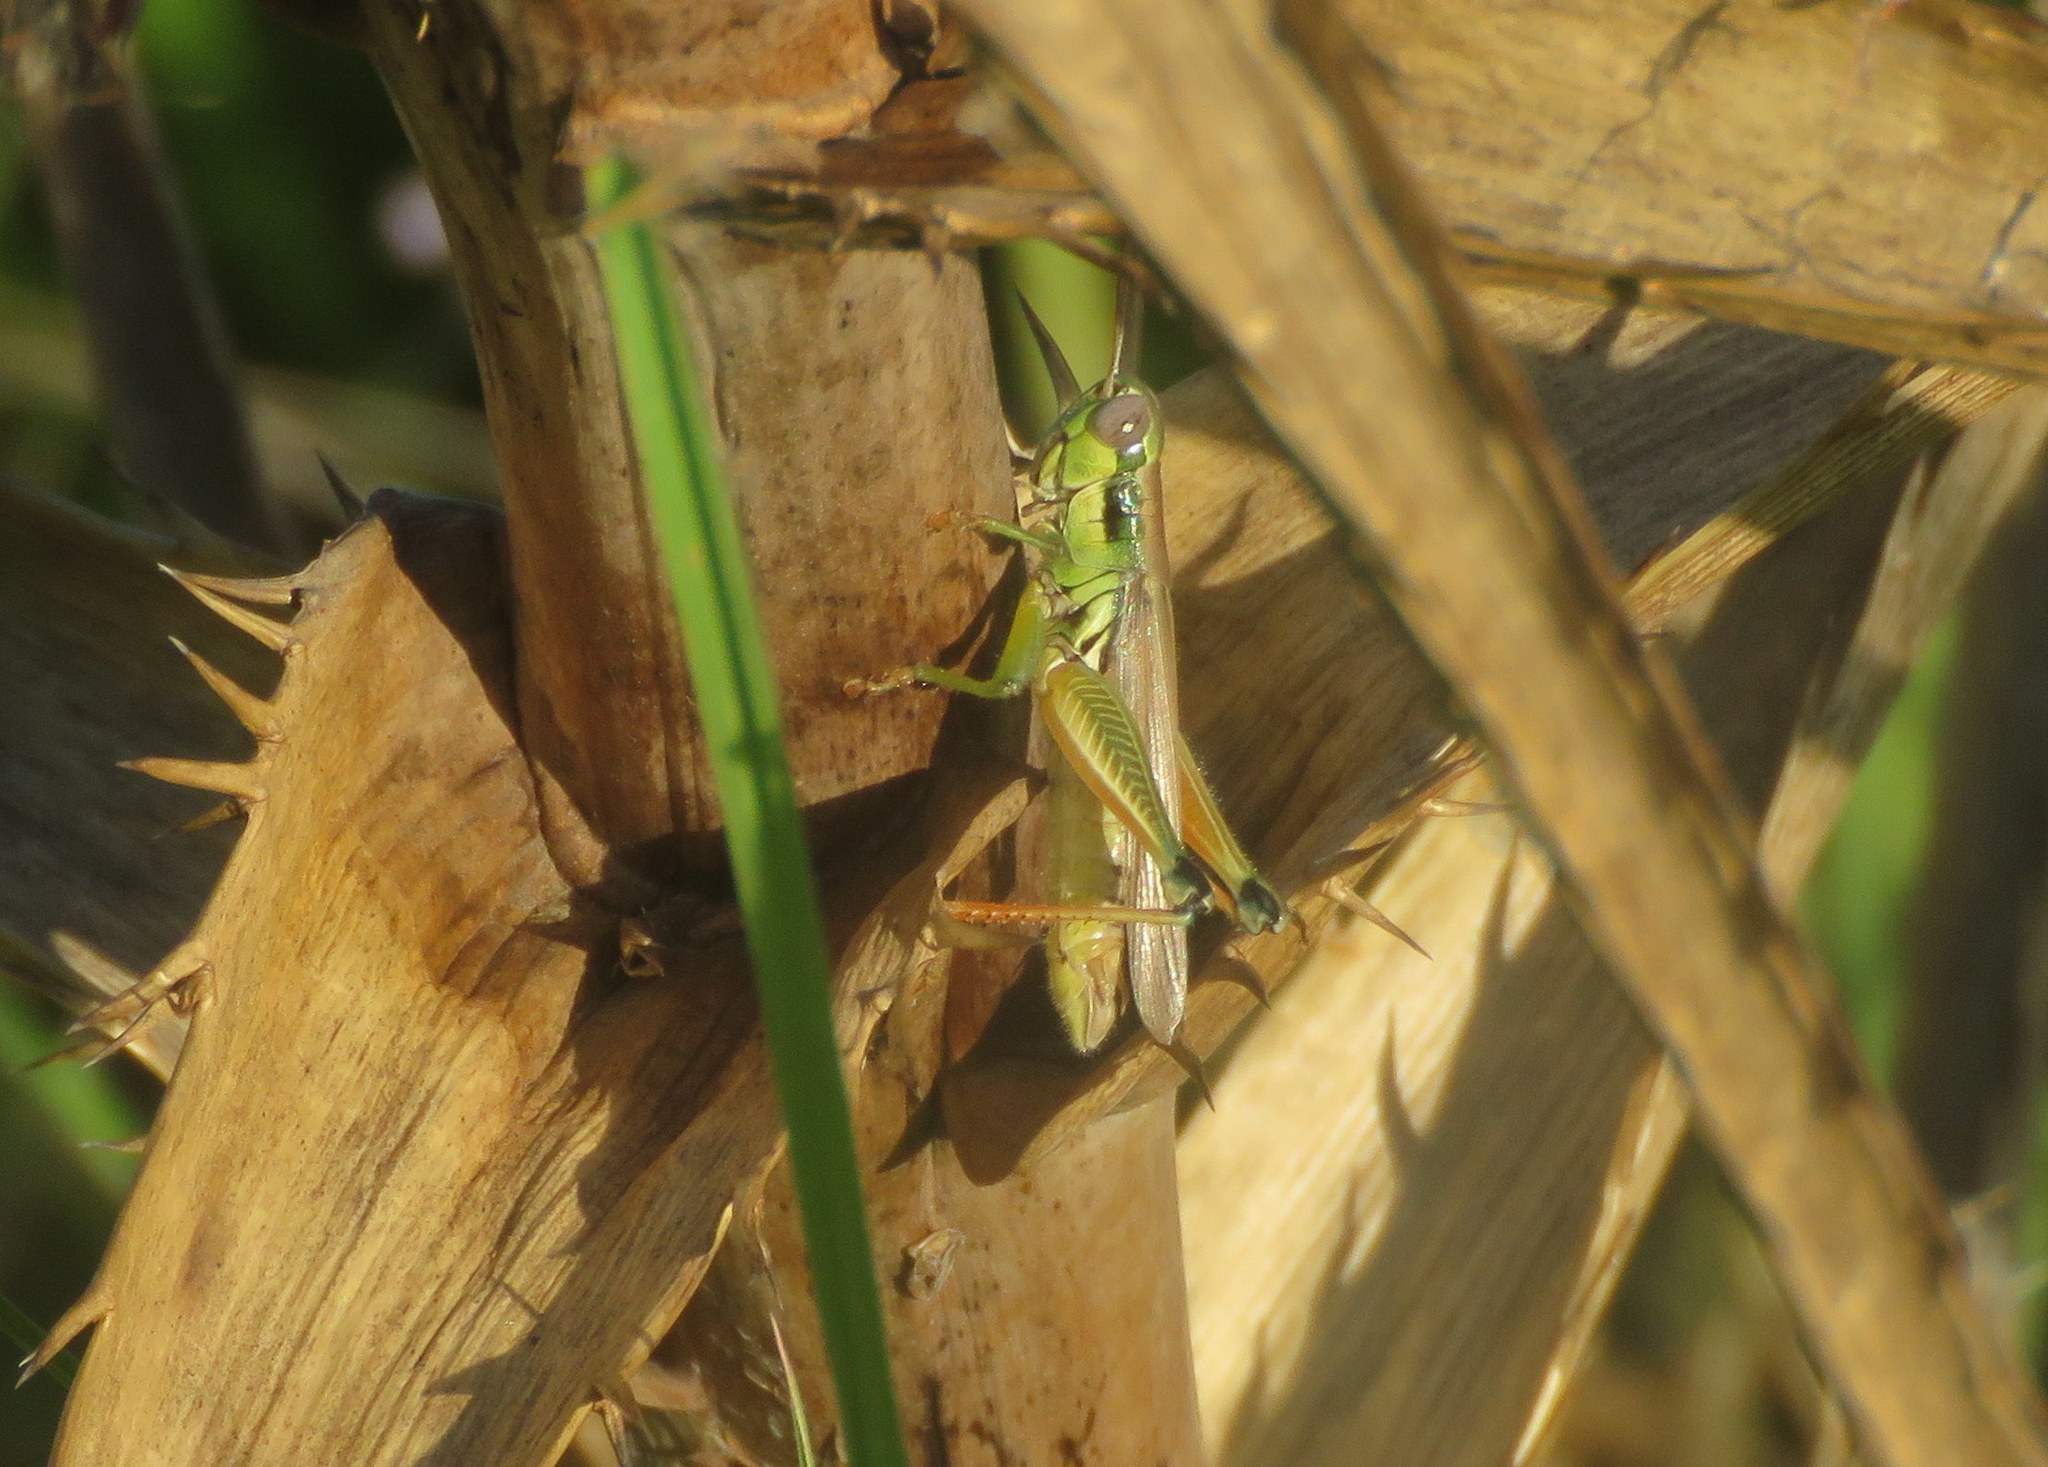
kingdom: Animalia
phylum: Arthropoda
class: Insecta
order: Orthoptera
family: Acrididae
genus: Leiotettix
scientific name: Leiotettix pulcher
